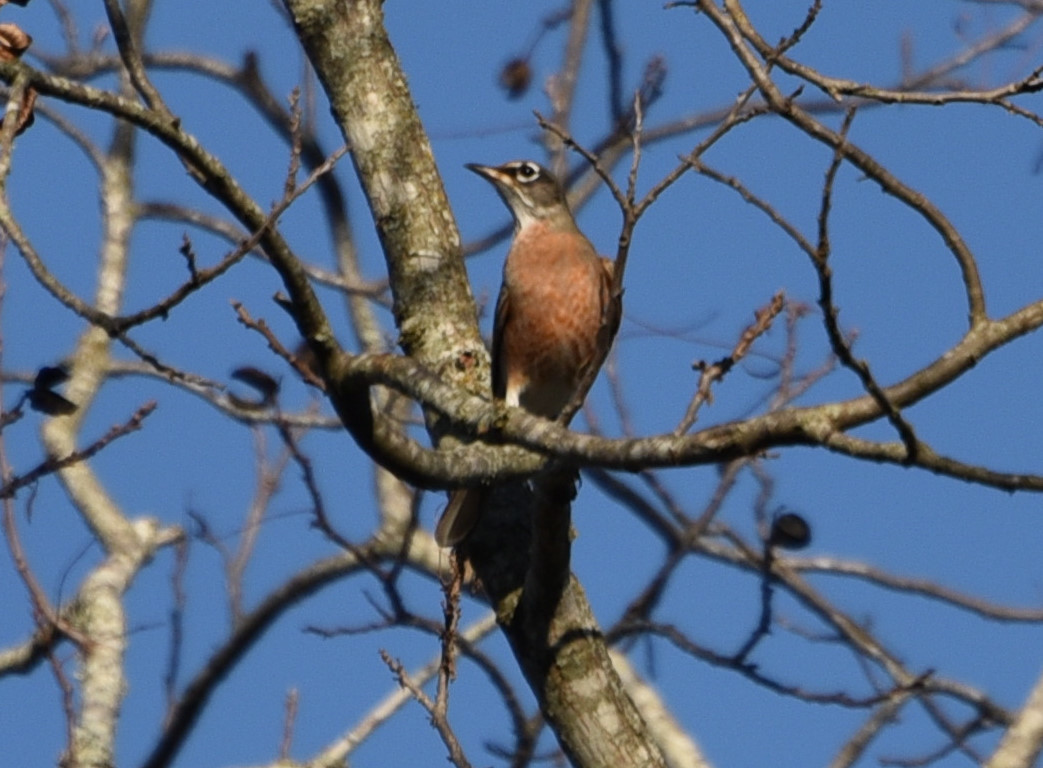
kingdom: Animalia
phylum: Chordata
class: Aves
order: Passeriformes
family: Turdidae
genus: Turdus
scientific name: Turdus migratorius
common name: American robin
